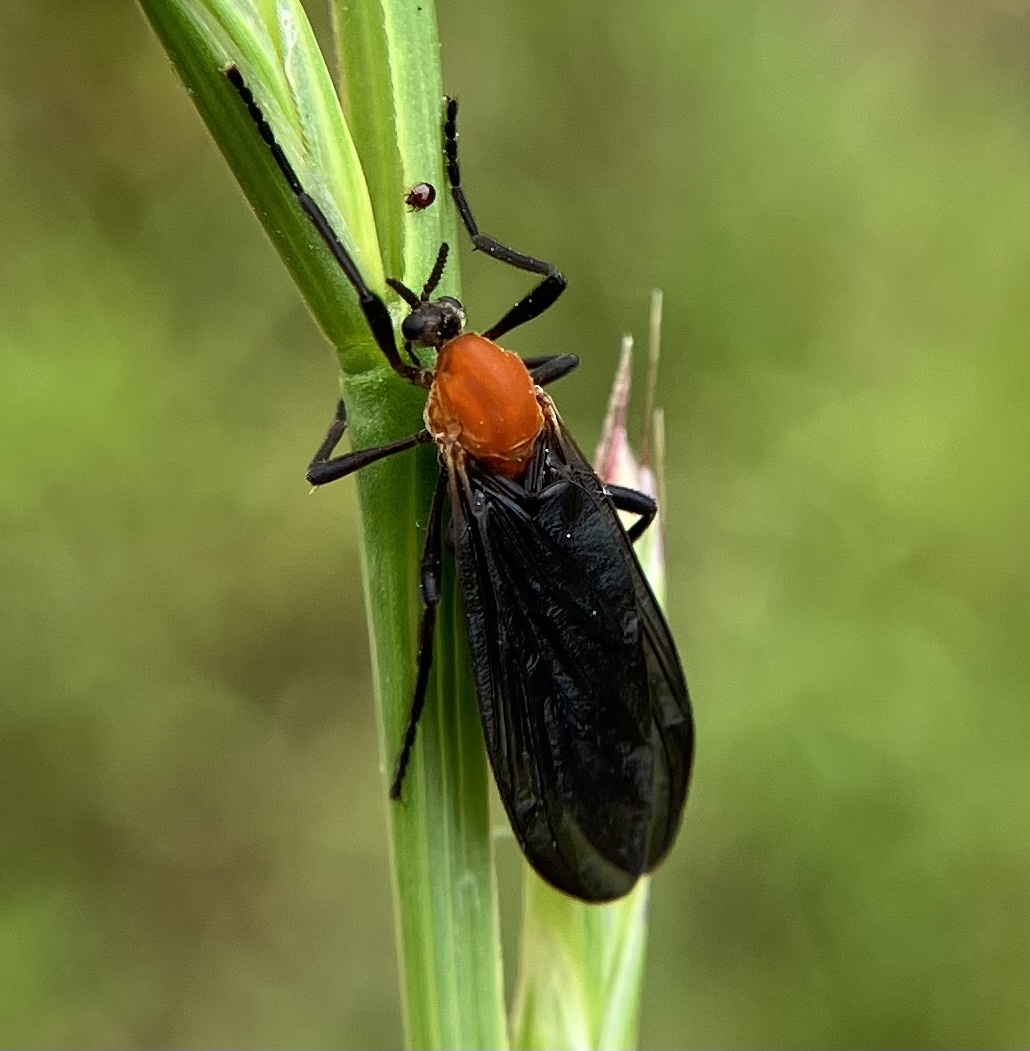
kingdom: Animalia
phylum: Arthropoda
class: Insecta
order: Diptera
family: Bibionidae
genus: Plecia
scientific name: Plecia americana
